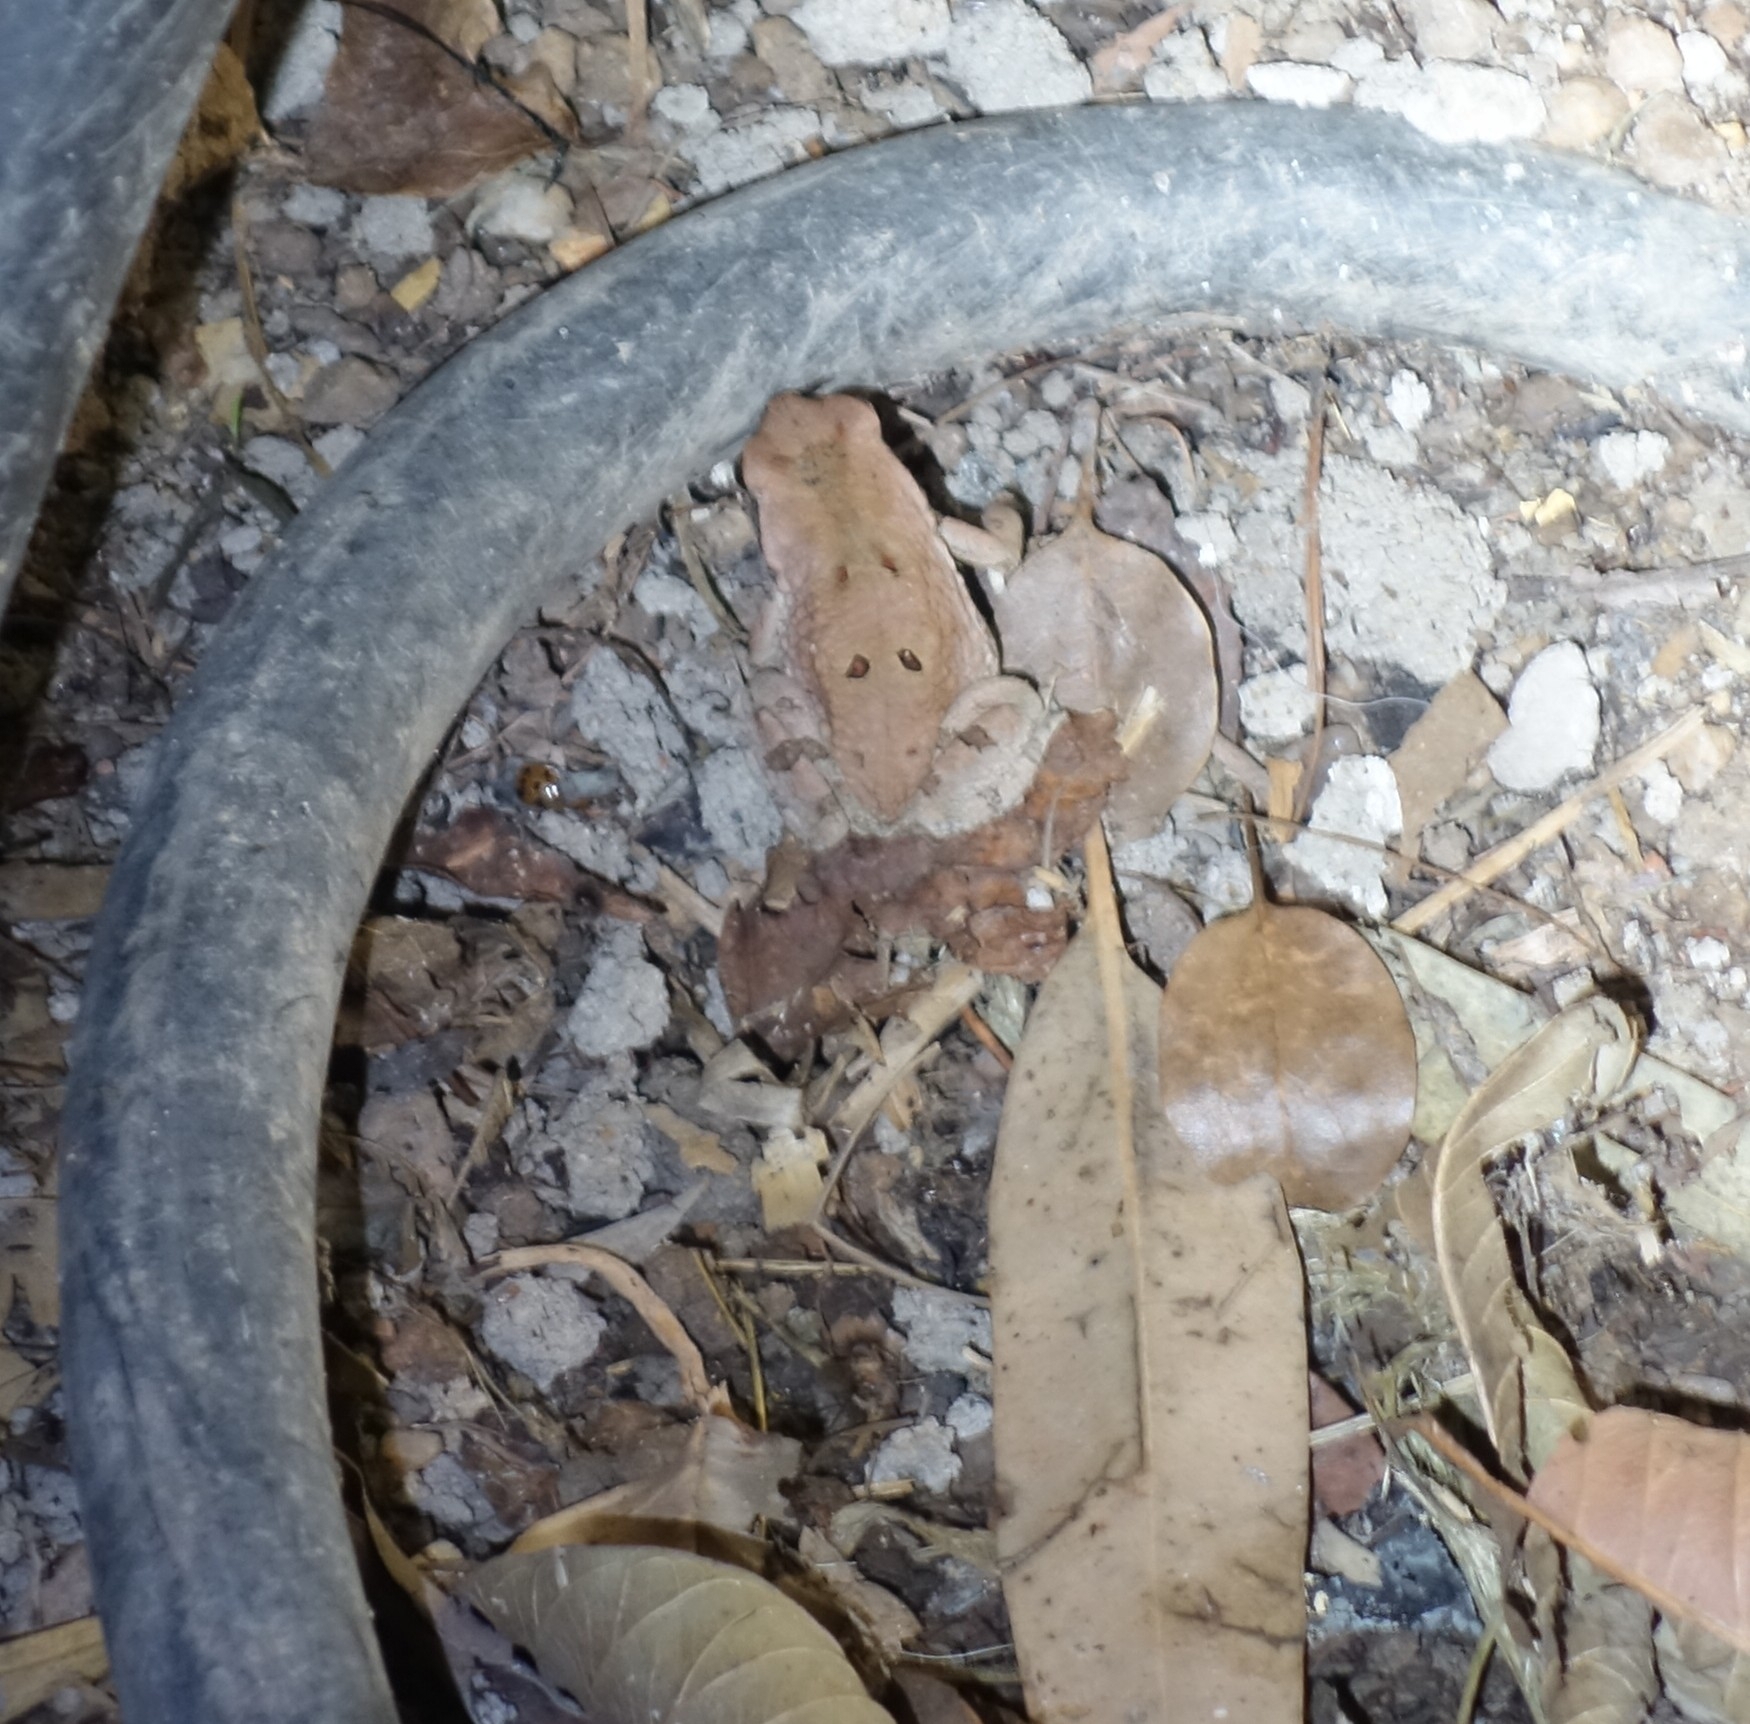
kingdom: Animalia
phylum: Chordata
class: Amphibia
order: Anura
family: Bufonidae
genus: Schismaderma
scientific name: Schismaderma carens
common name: African split-skin toad
